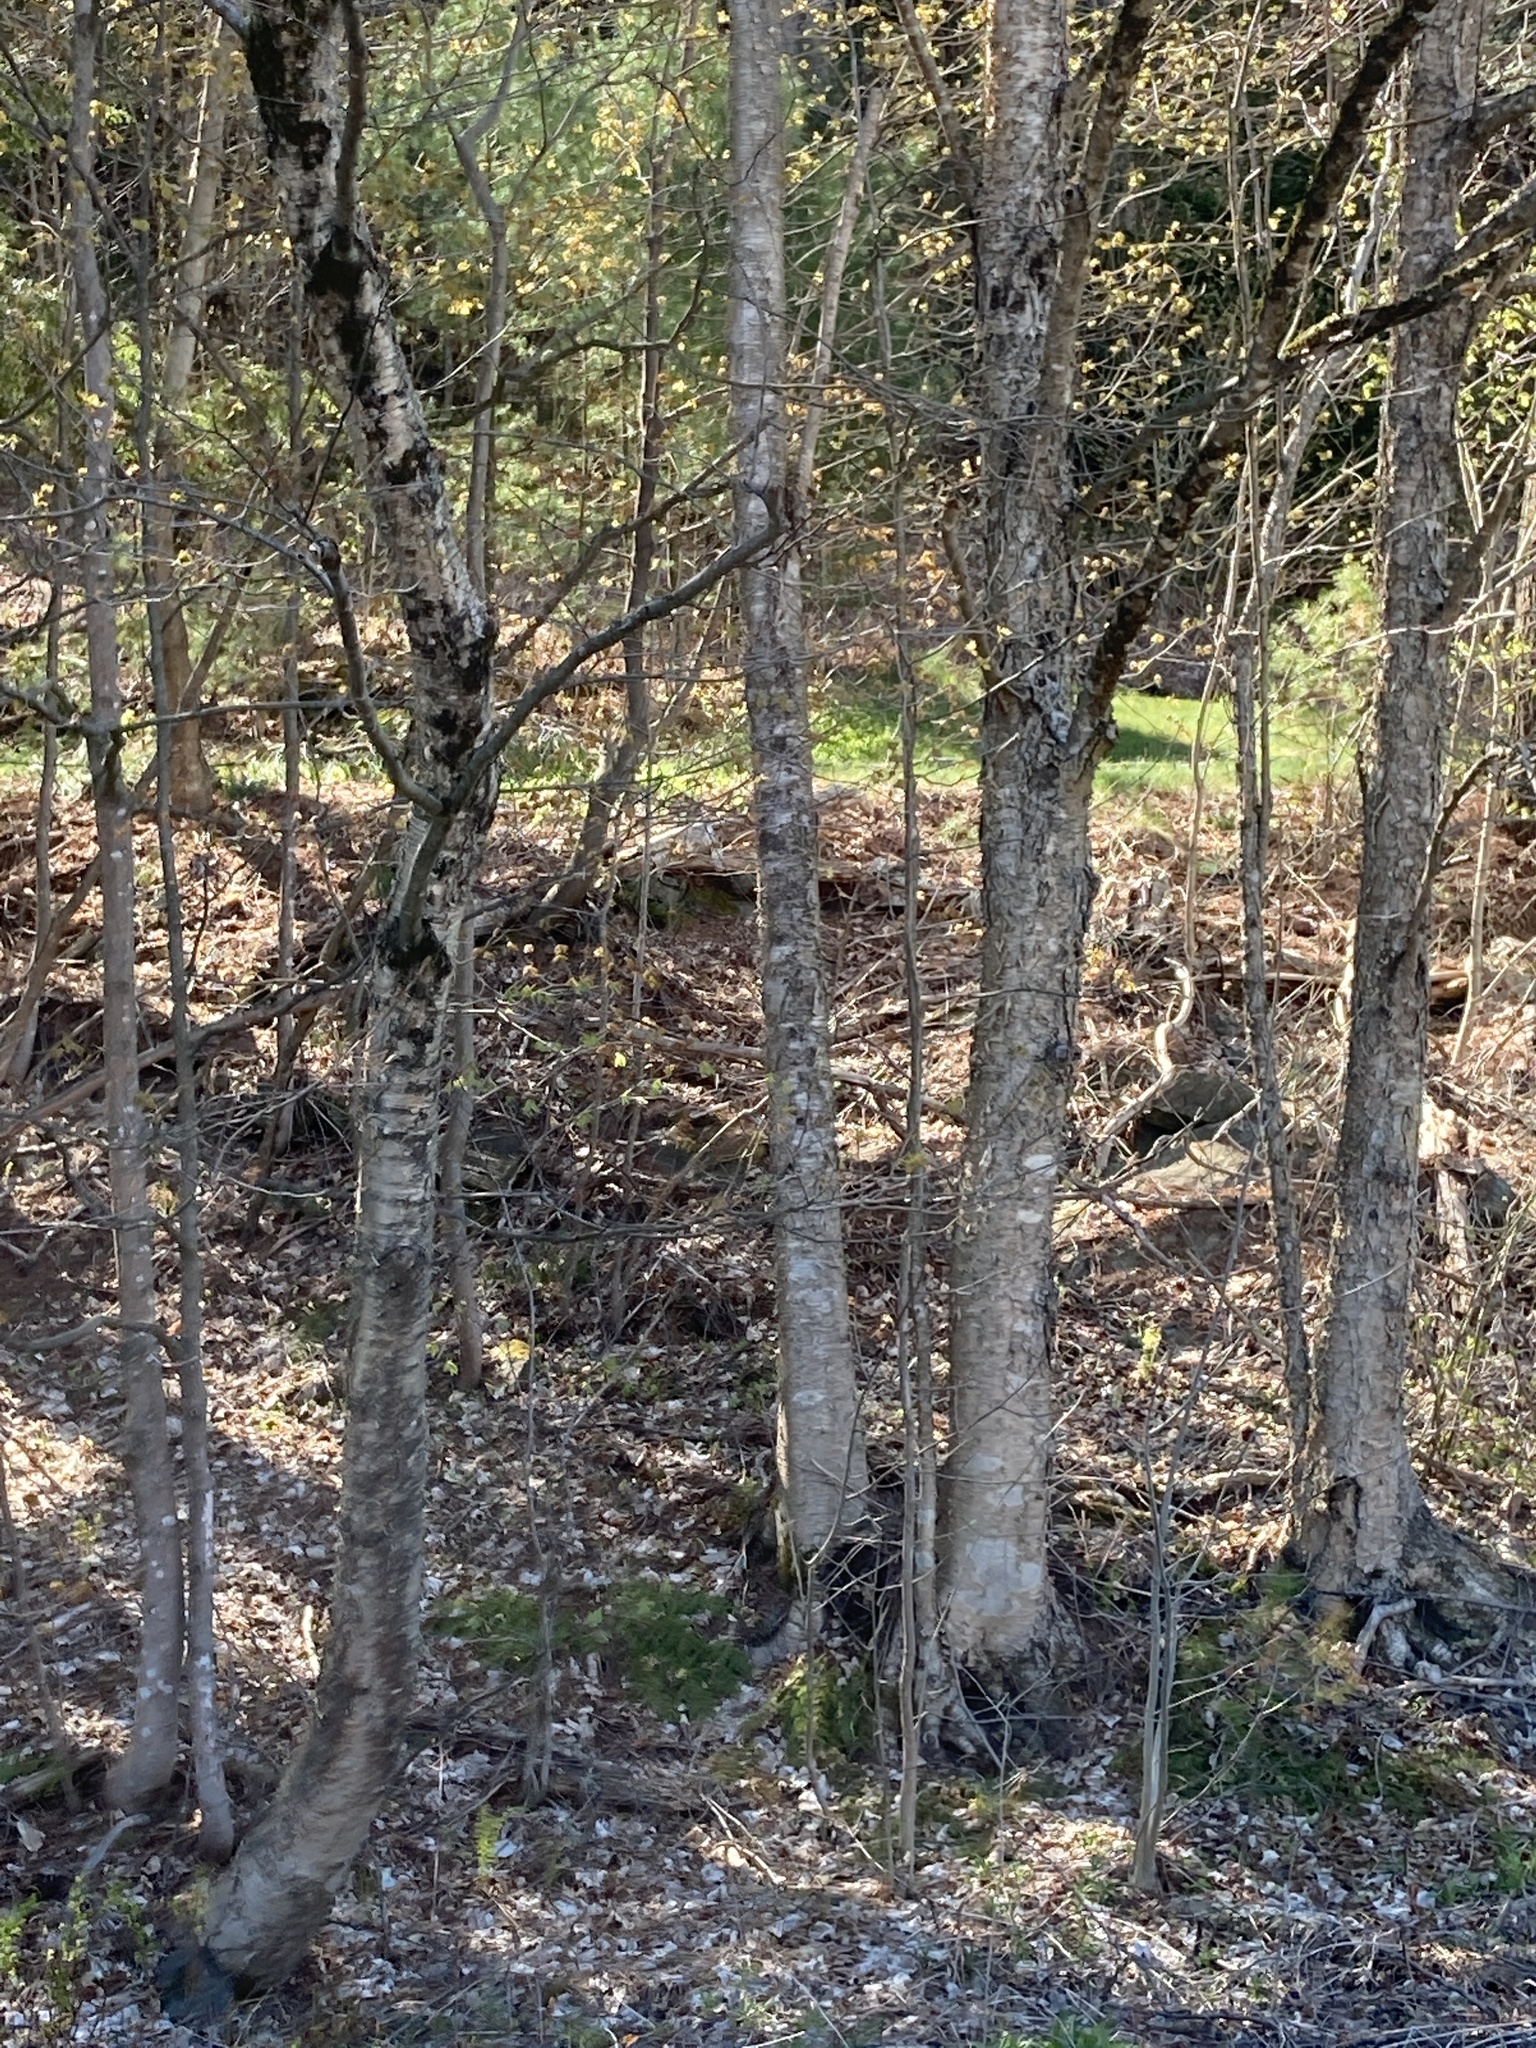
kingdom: Plantae
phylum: Tracheophyta
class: Magnoliopsida
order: Fagales
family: Betulaceae
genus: Betula
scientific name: Betula alleghaniensis
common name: Yellow birch
